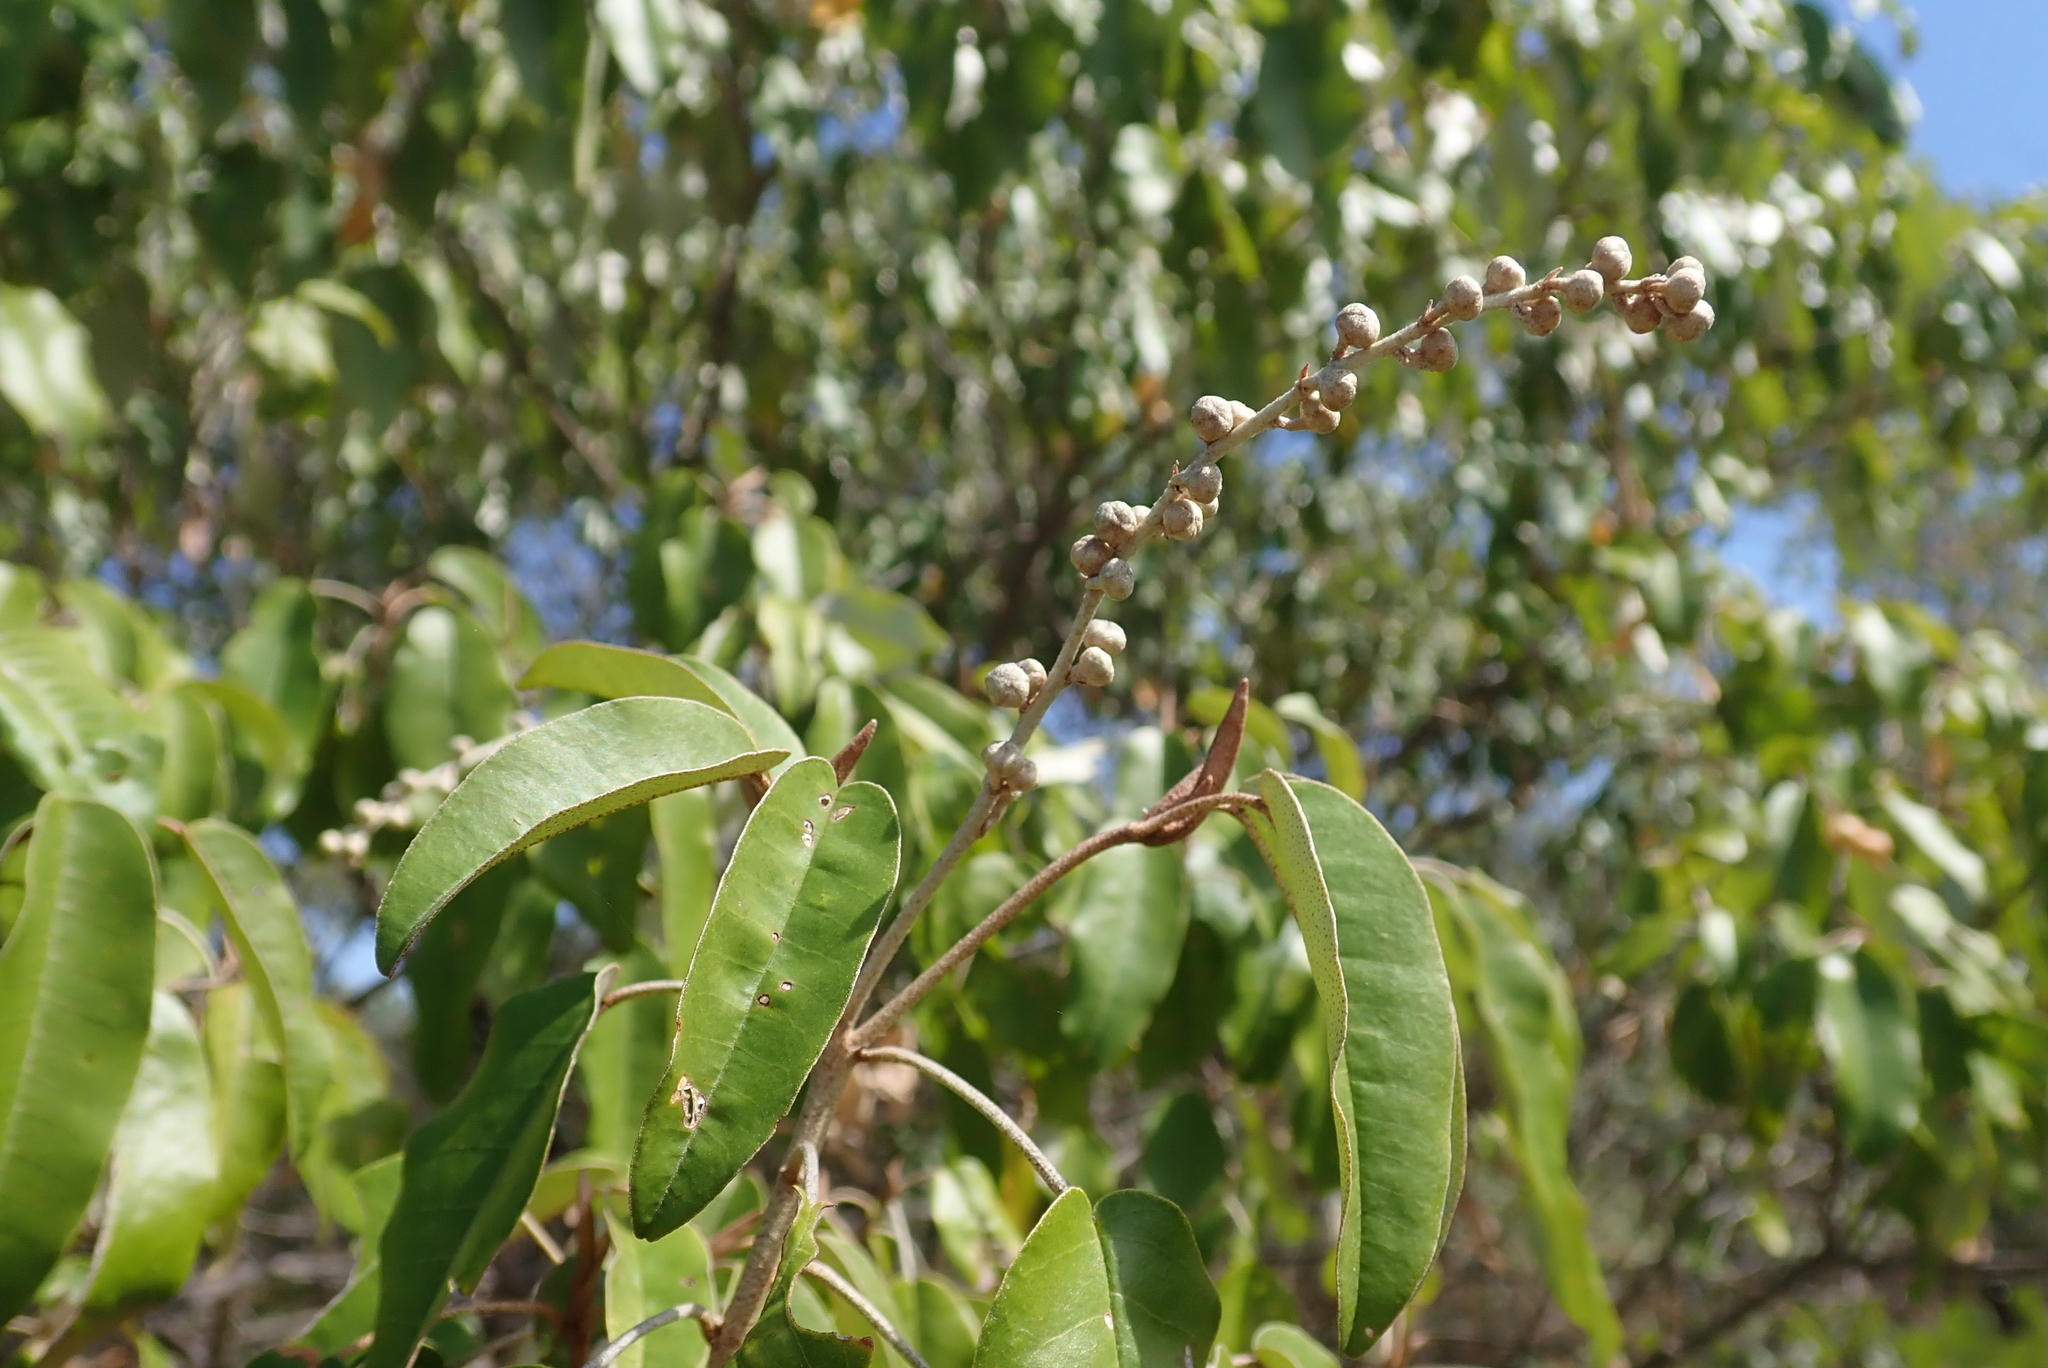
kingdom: Plantae
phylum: Tracheophyta
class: Magnoliopsida
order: Malpighiales
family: Euphorbiaceae
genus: Croton
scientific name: Croton gratissimus
